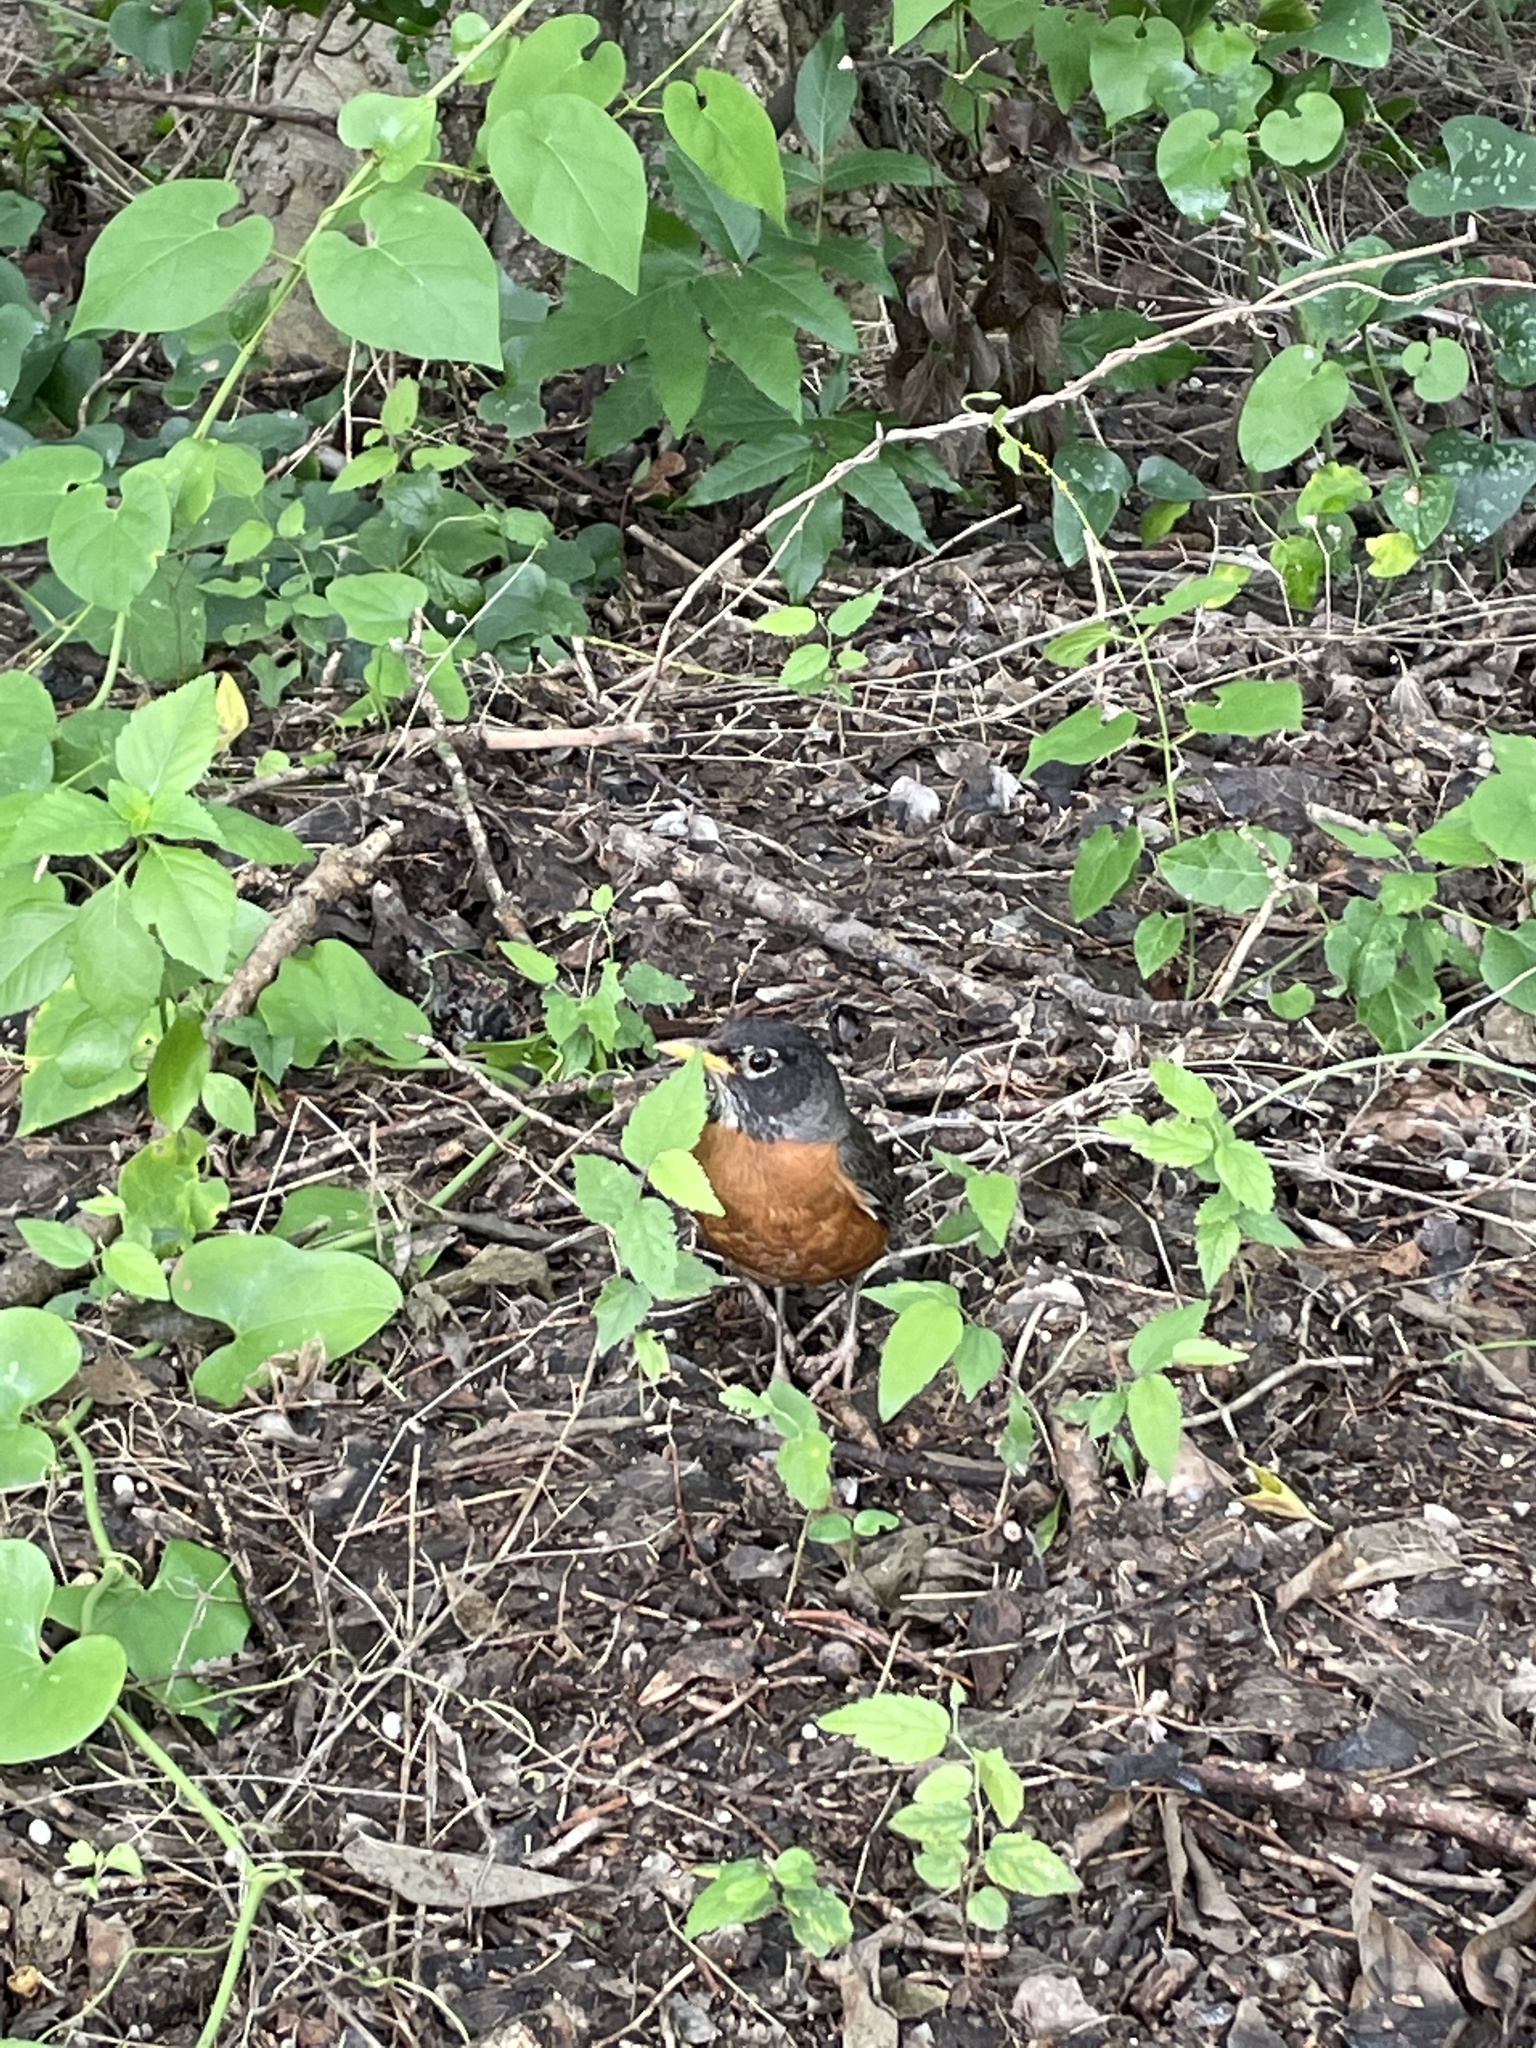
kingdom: Animalia
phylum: Chordata
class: Aves
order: Passeriformes
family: Turdidae
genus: Turdus
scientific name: Turdus migratorius
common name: American robin
